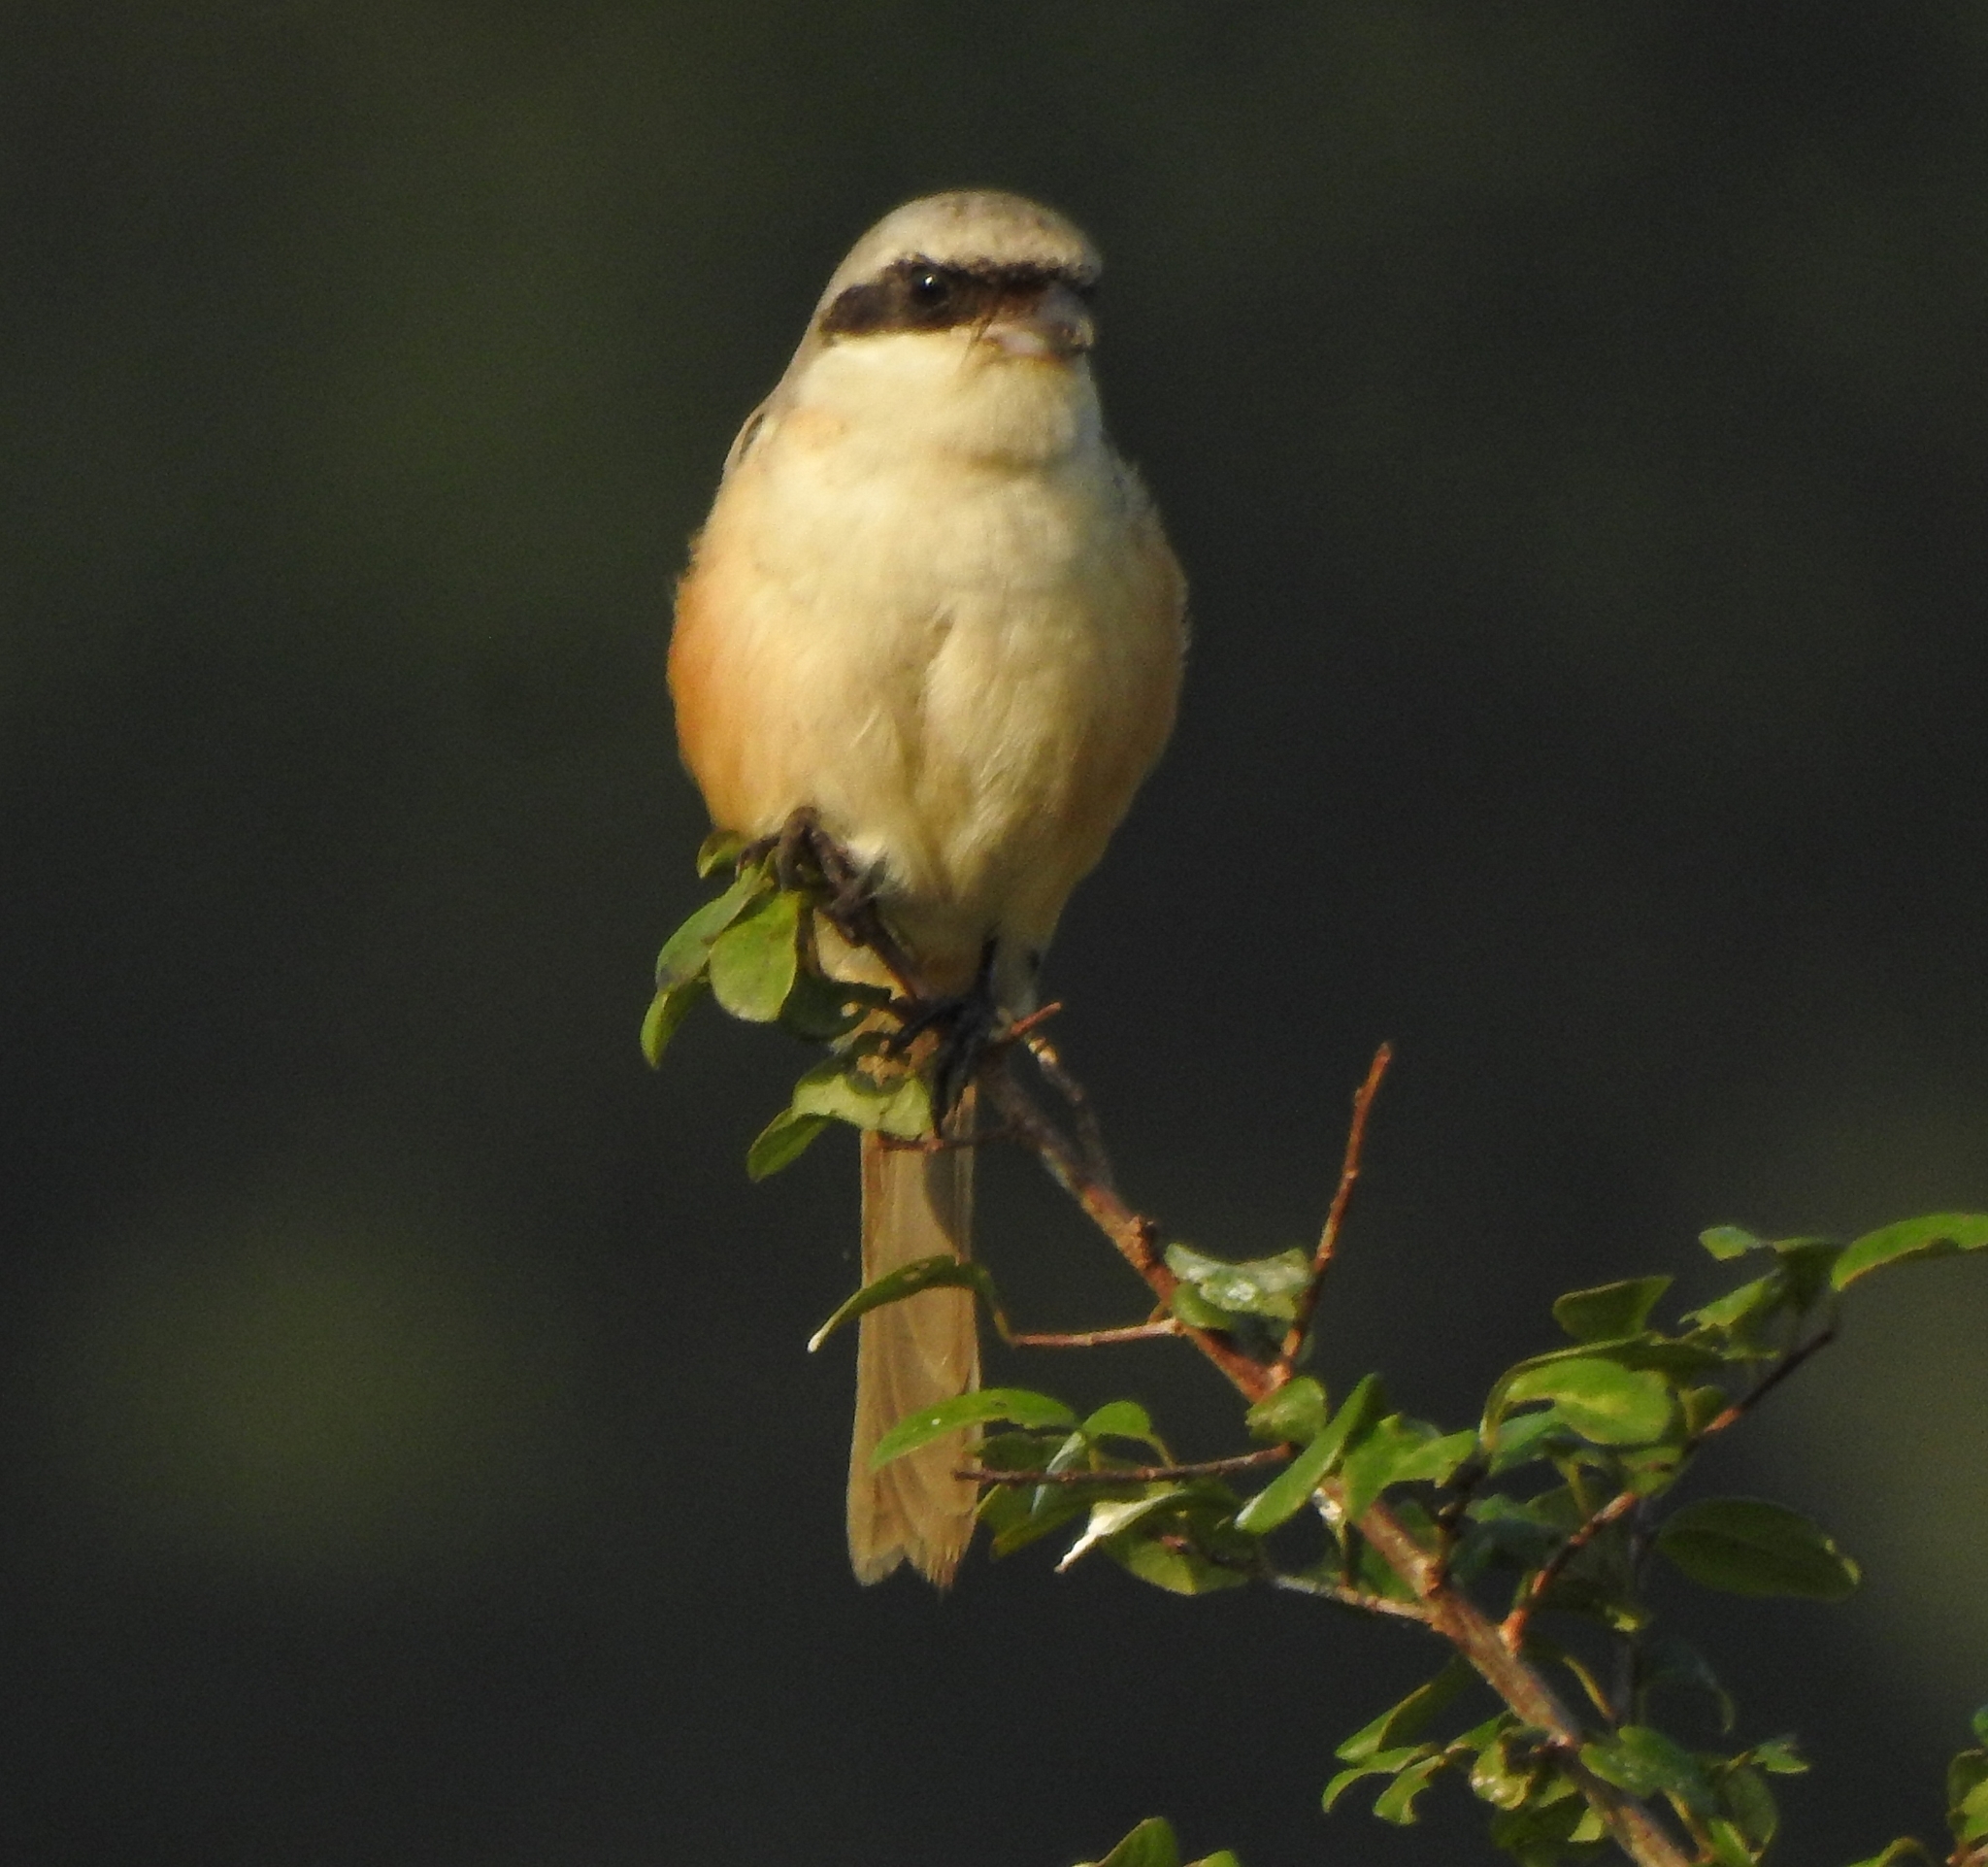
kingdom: Animalia
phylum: Chordata
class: Aves
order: Passeriformes
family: Laniidae
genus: Lanius
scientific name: Lanius schach
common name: Long-tailed shrike
